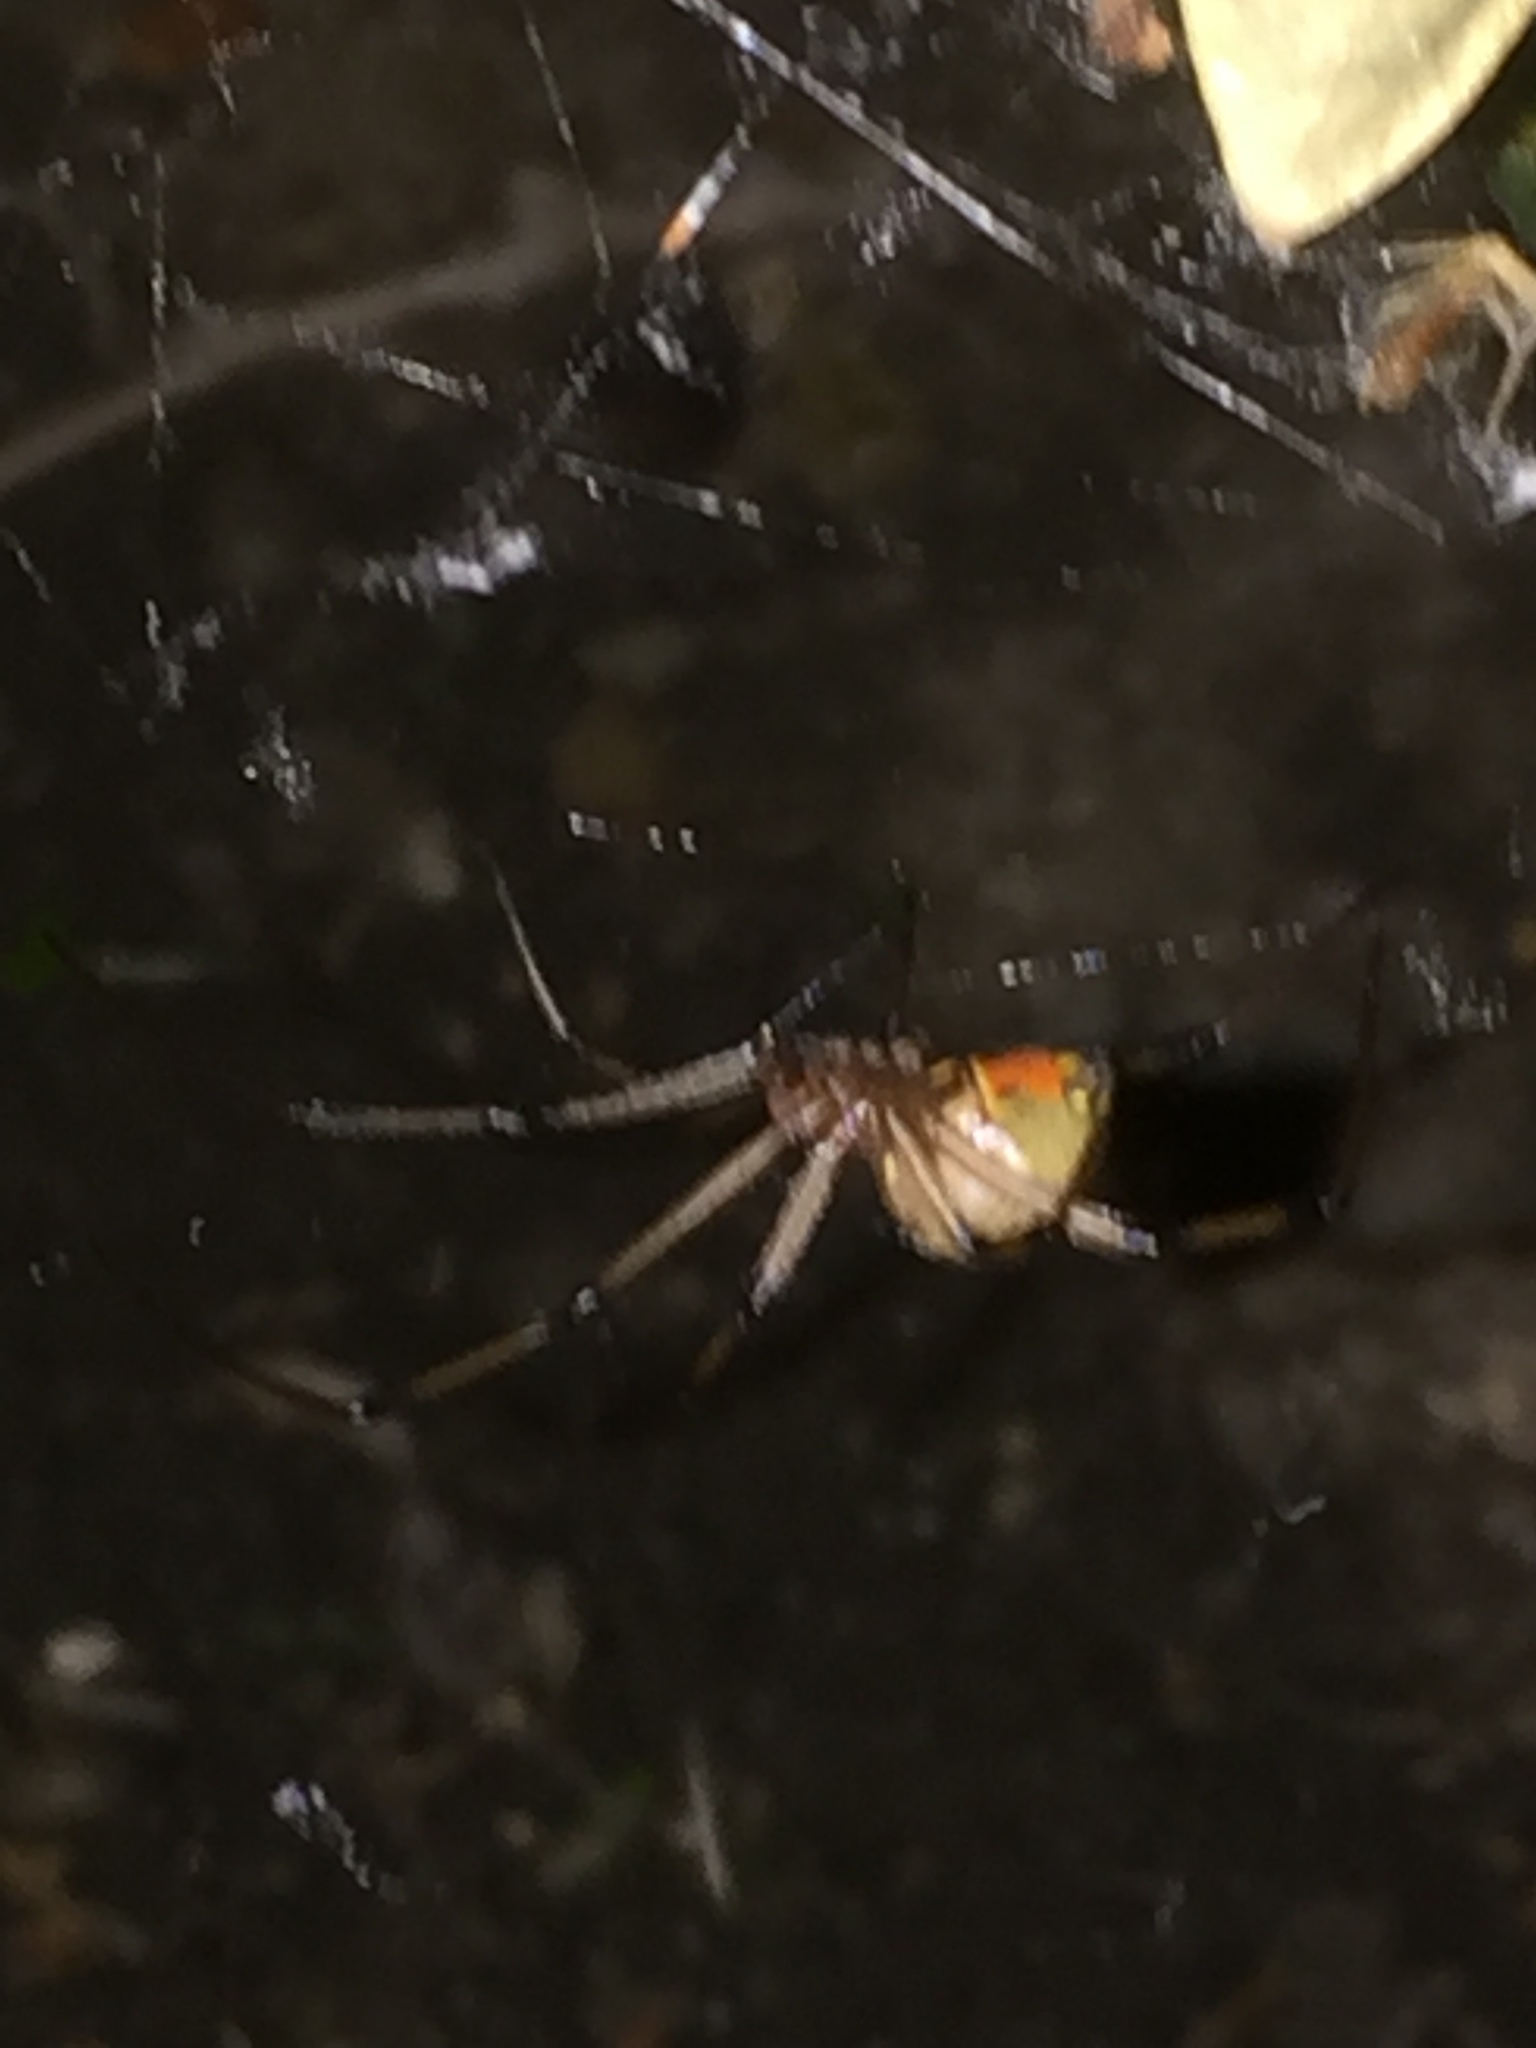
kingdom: Animalia
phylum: Arthropoda
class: Arachnida
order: Araneae
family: Theridiidae
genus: Latrodectus
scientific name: Latrodectus geometricus
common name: Brown widow spider
